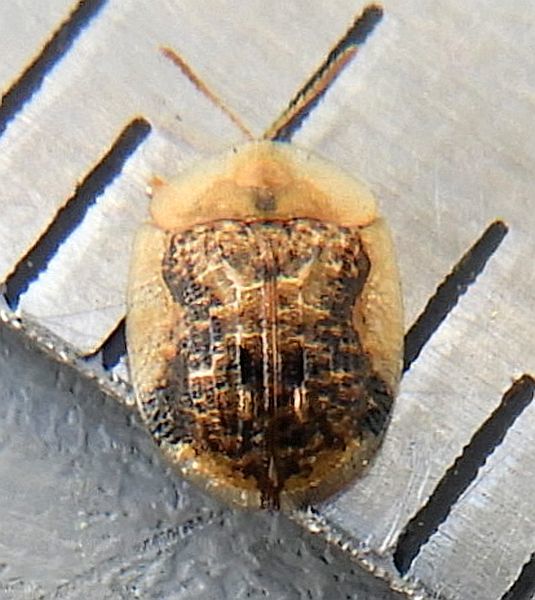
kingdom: Animalia
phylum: Arthropoda
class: Insecta
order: Coleoptera
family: Chrysomelidae
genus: Cassida
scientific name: Cassida piperata
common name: Small tortoise beetle
